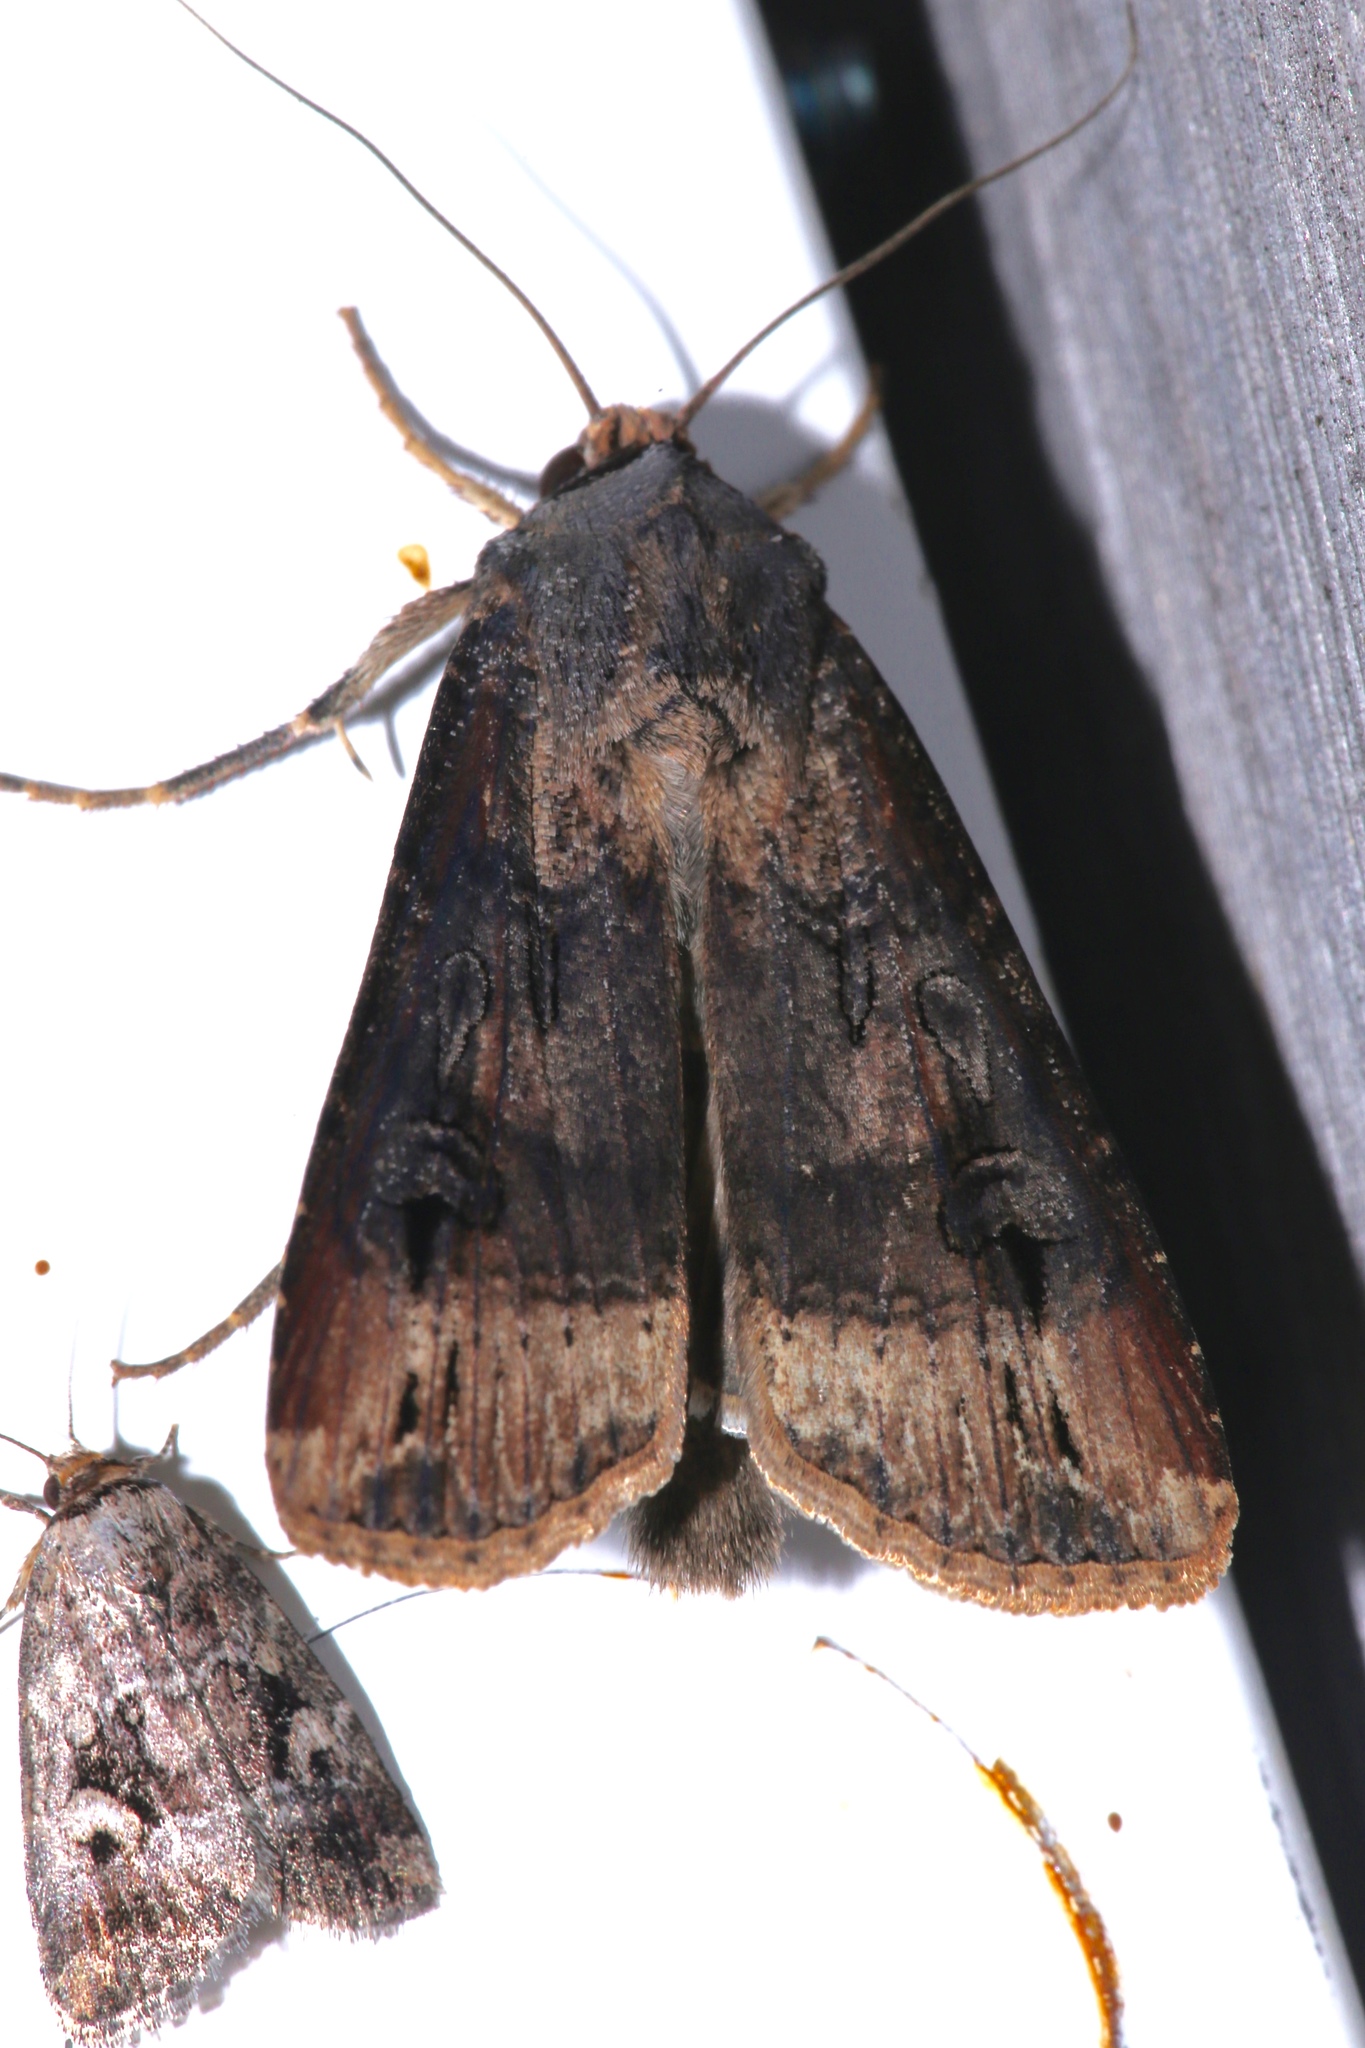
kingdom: Animalia
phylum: Arthropoda
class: Insecta
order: Lepidoptera
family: Noctuidae
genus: Agrotis
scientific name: Agrotis ipsilon
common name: Dark sword-grass
